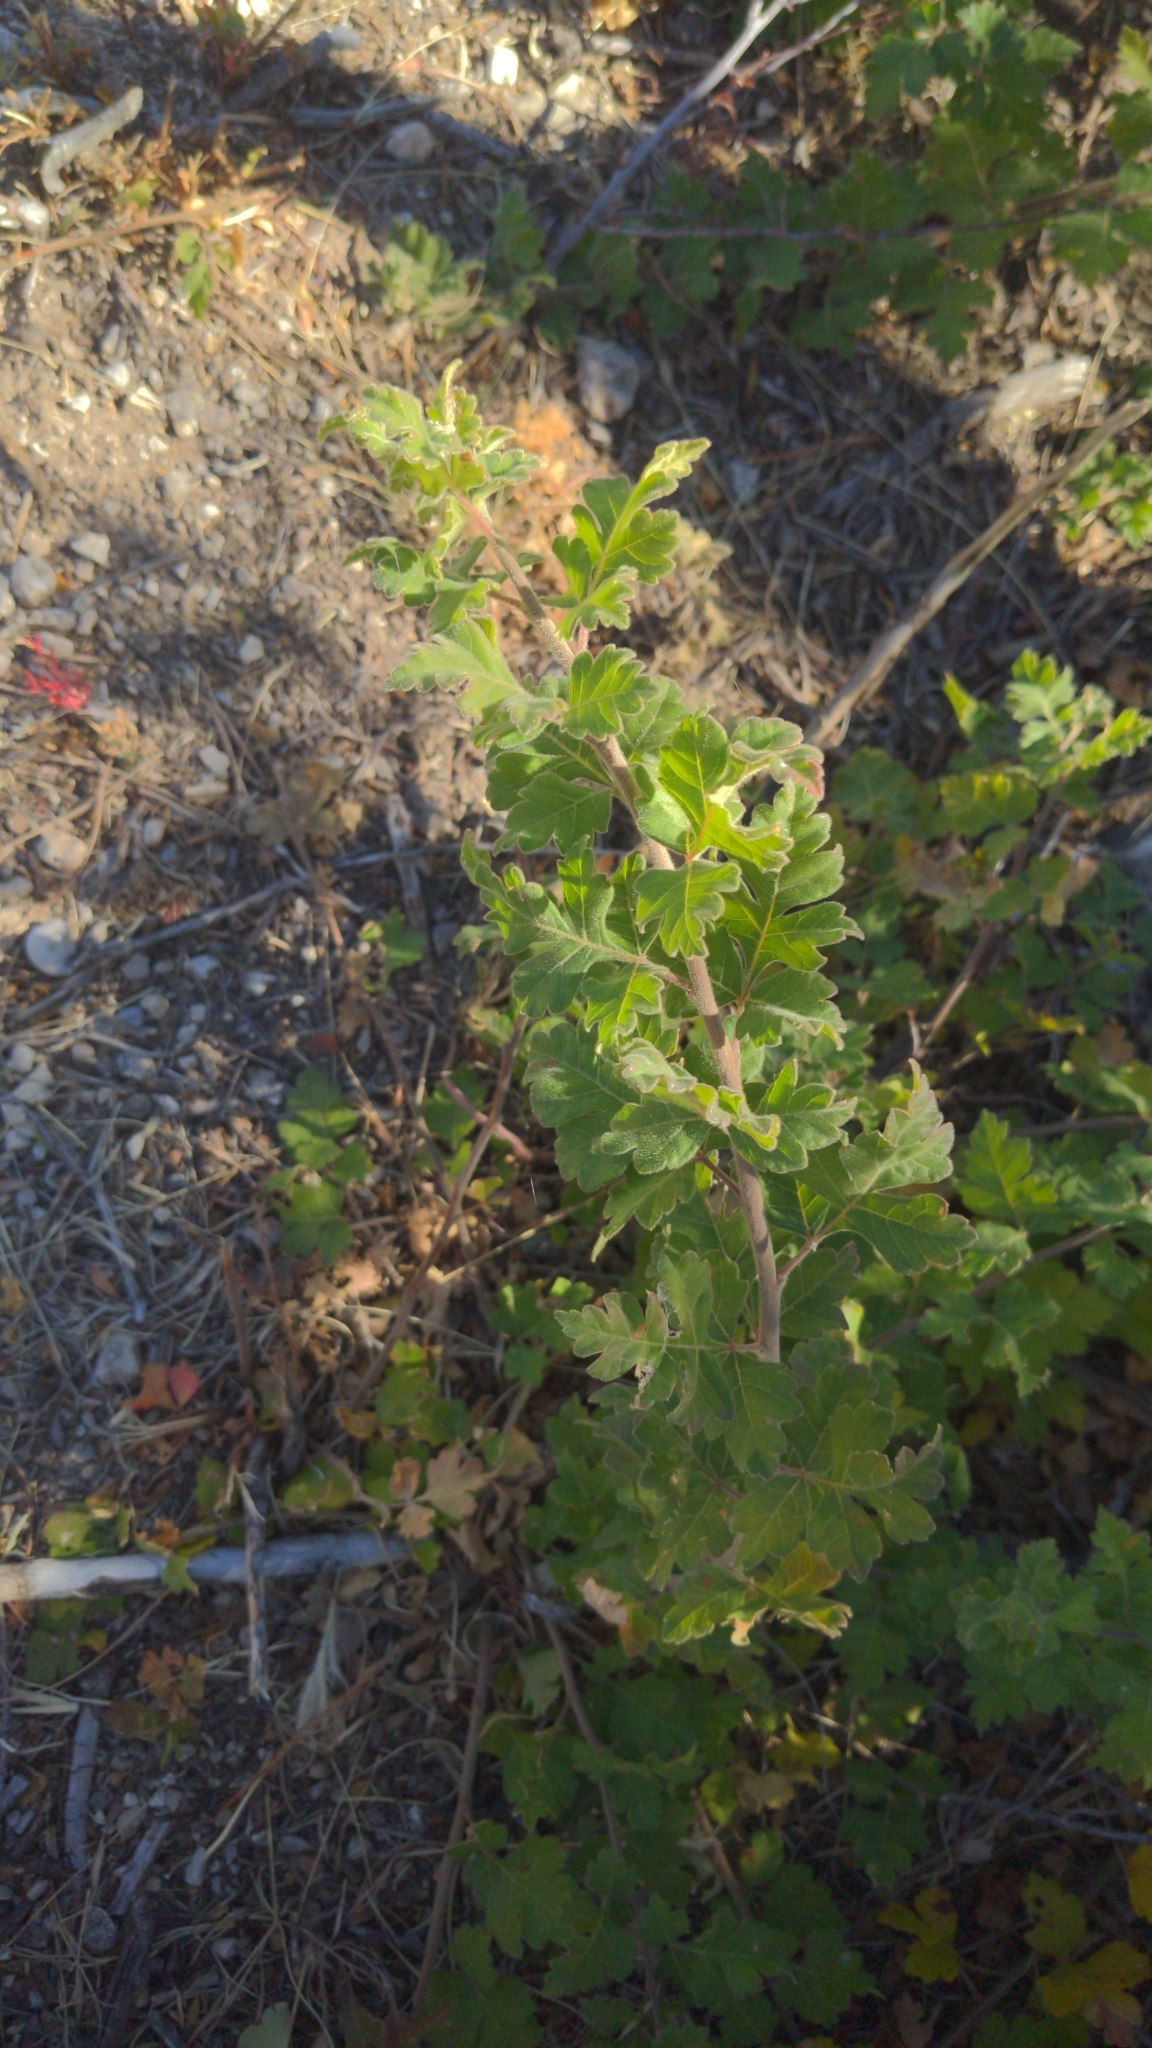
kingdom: Plantae
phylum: Tracheophyta
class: Magnoliopsida
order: Sapindales
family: Anacardiaceae
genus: Rhus
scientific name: Rhus aromatica
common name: Aromatic sumac
